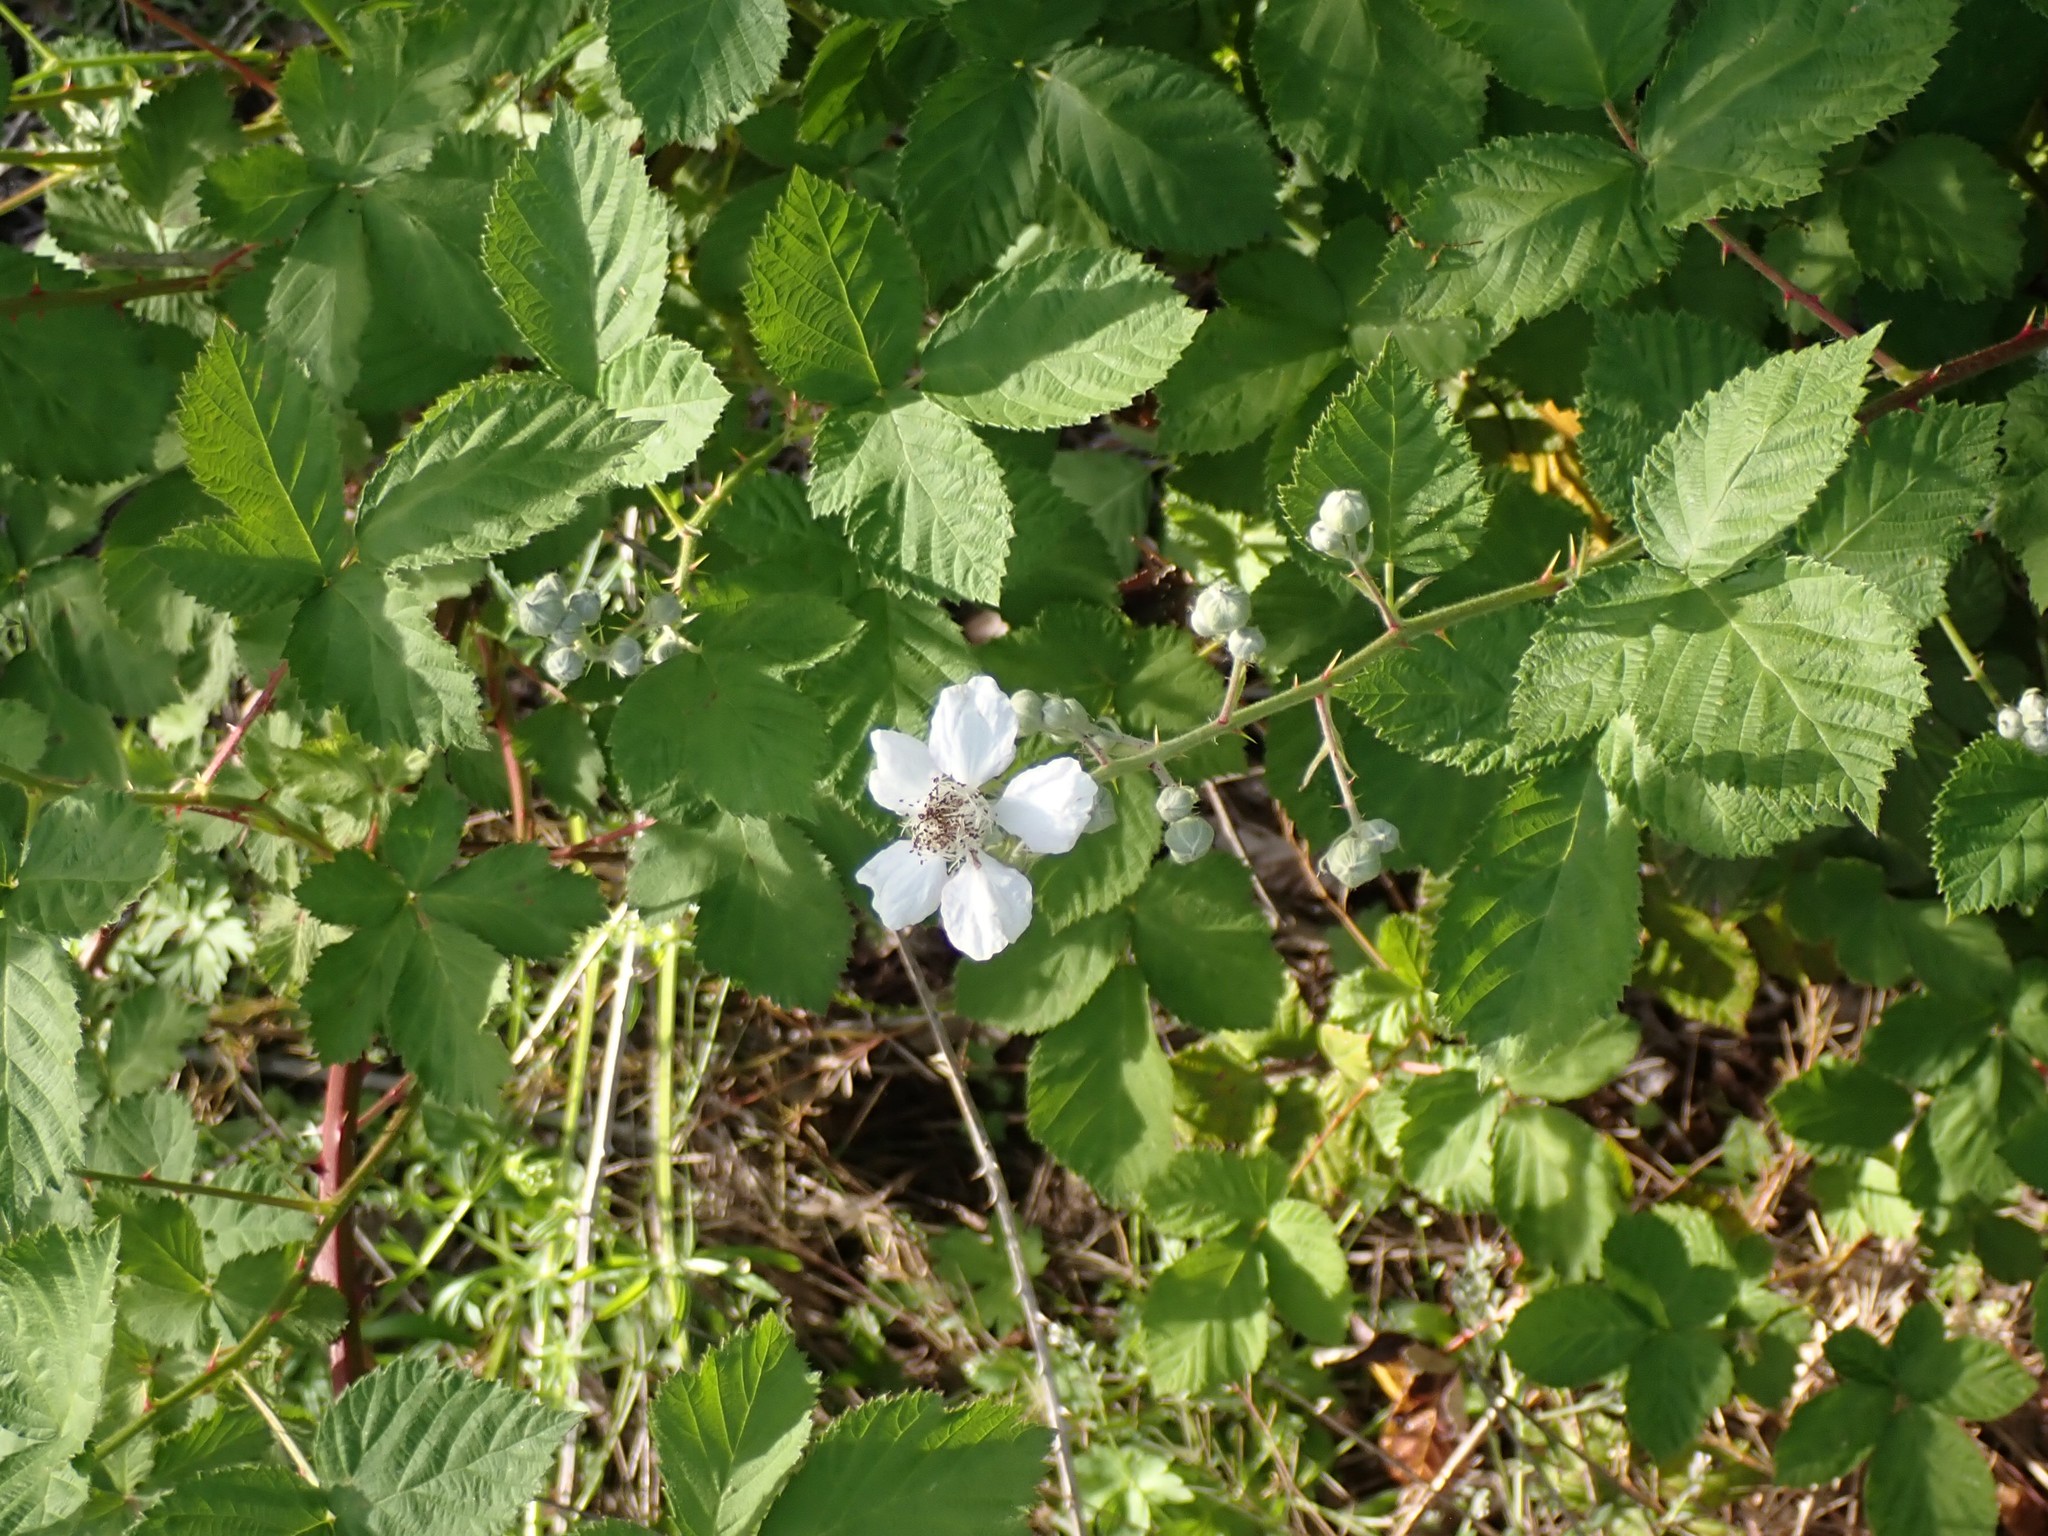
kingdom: Plantae
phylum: Tracheophyta
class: Magnoliopsida
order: Rosales
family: Rosaceae
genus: Rubus
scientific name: Rubus bifrons
